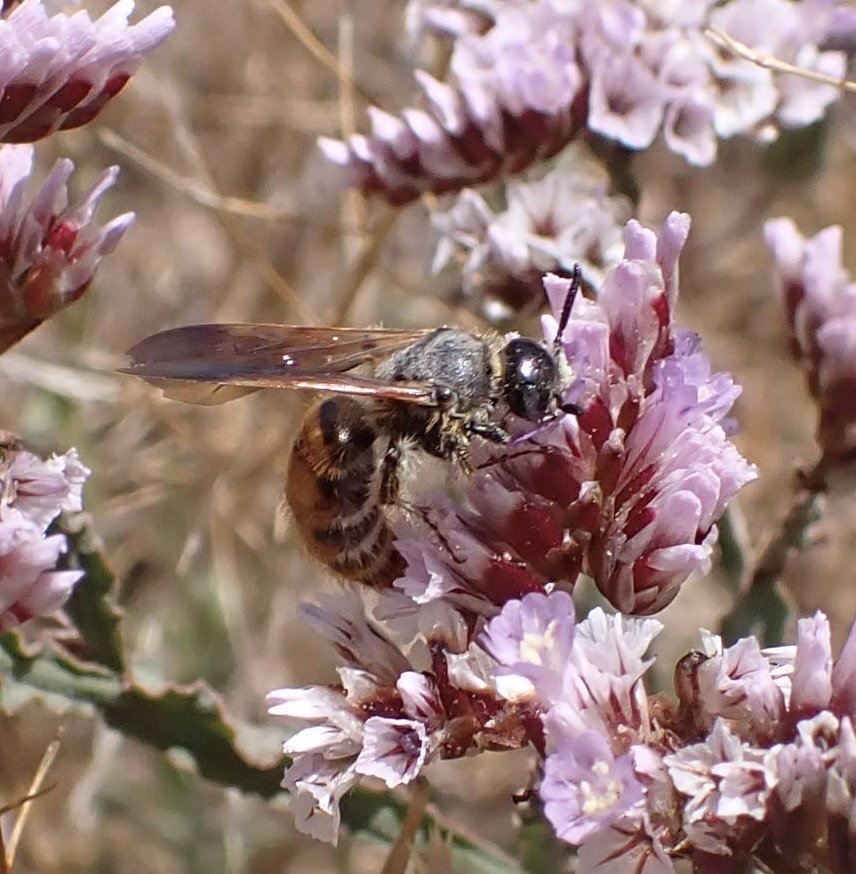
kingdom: Animalia
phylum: Arthropoda
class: Insecta
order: Hymenoptera
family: Scoliidae
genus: Micromeriella
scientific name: Micromeriella aureola
